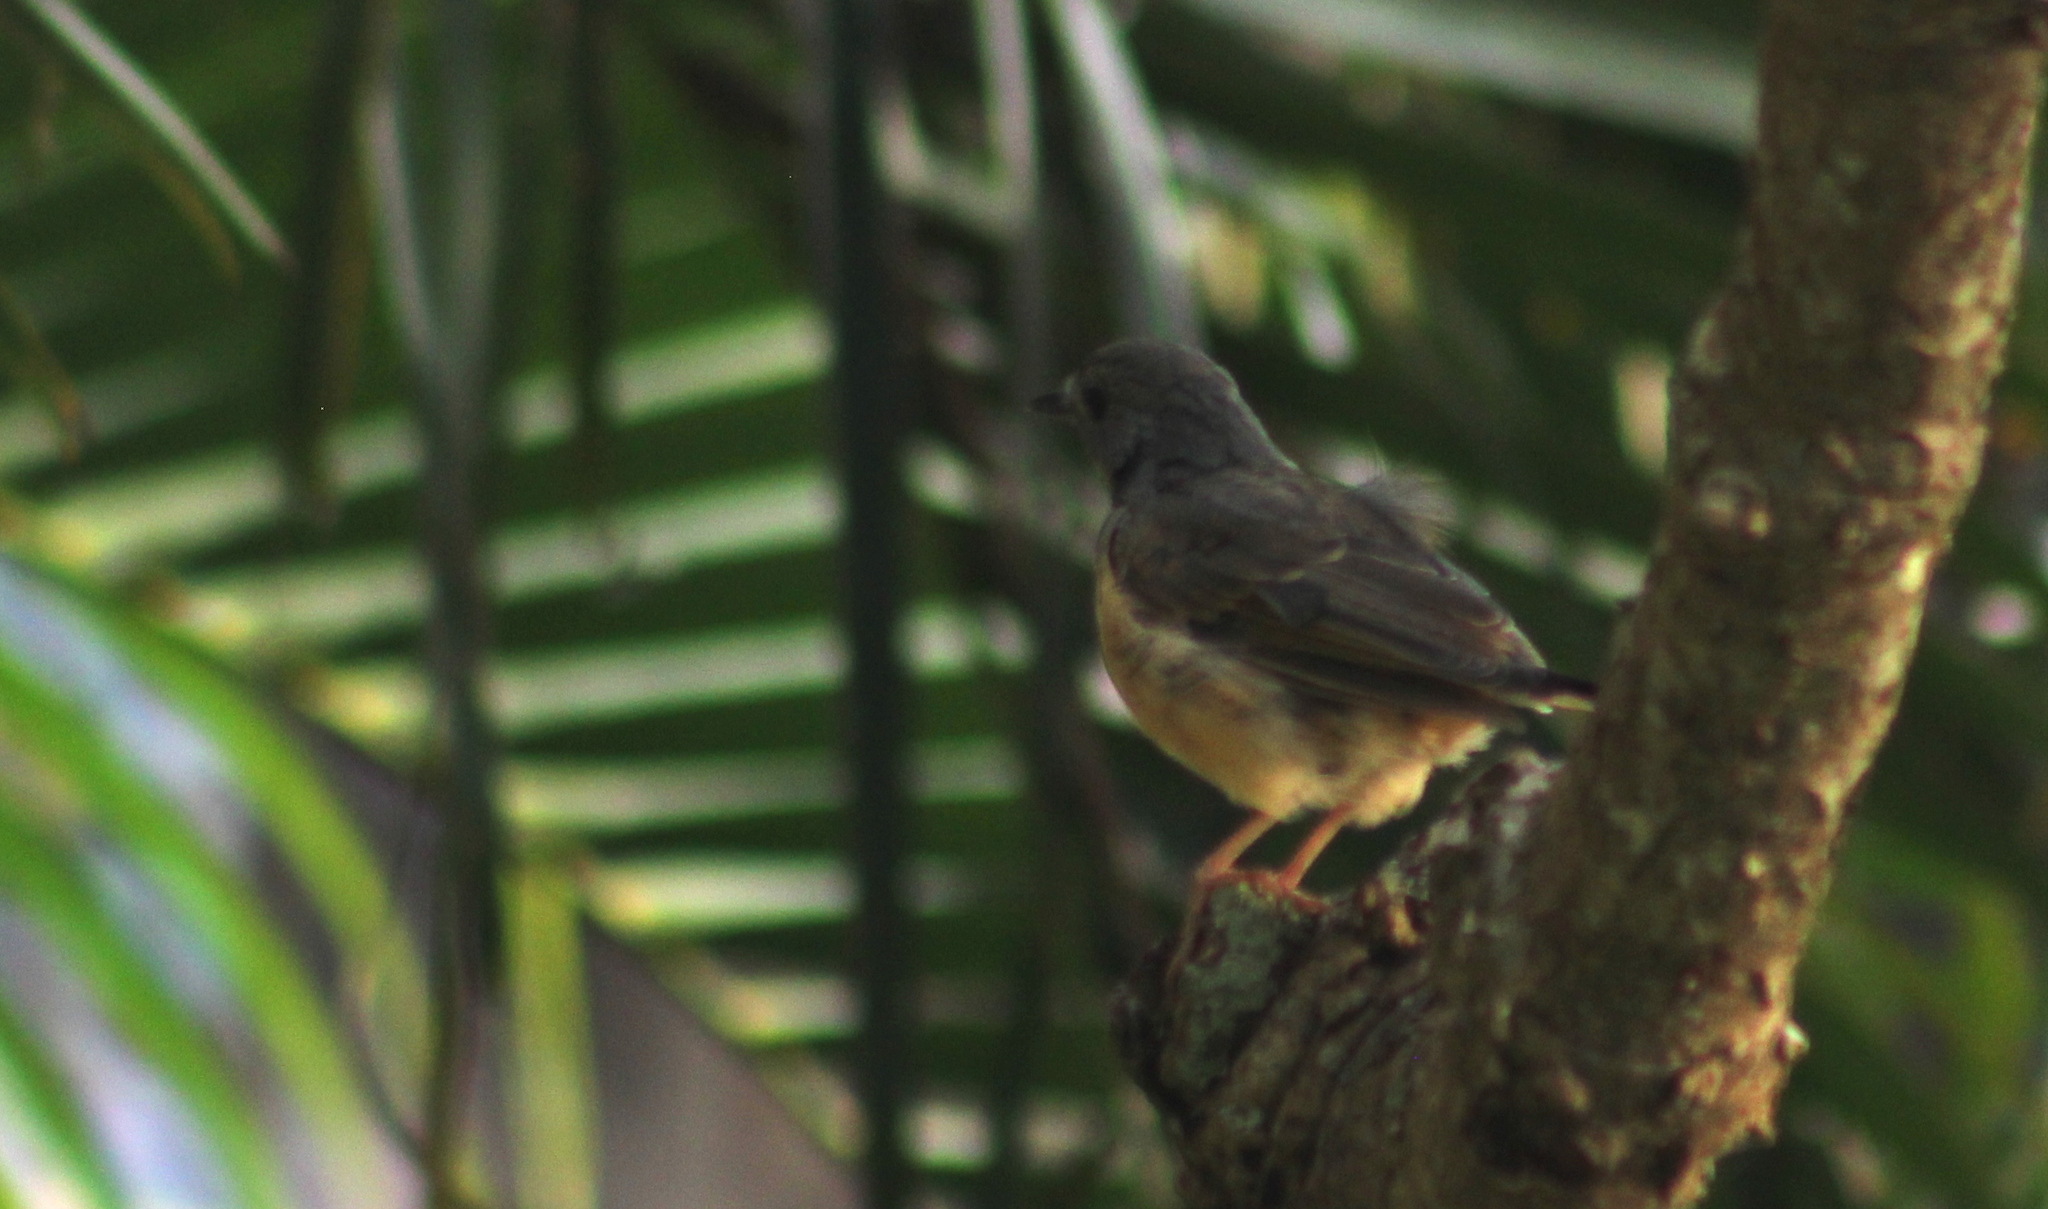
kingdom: Animalia
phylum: Chordata
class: Aves
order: Passeriformes
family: Muscicapidae
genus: Copsychus
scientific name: Copsychus malabaricus
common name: White-rumped shama
